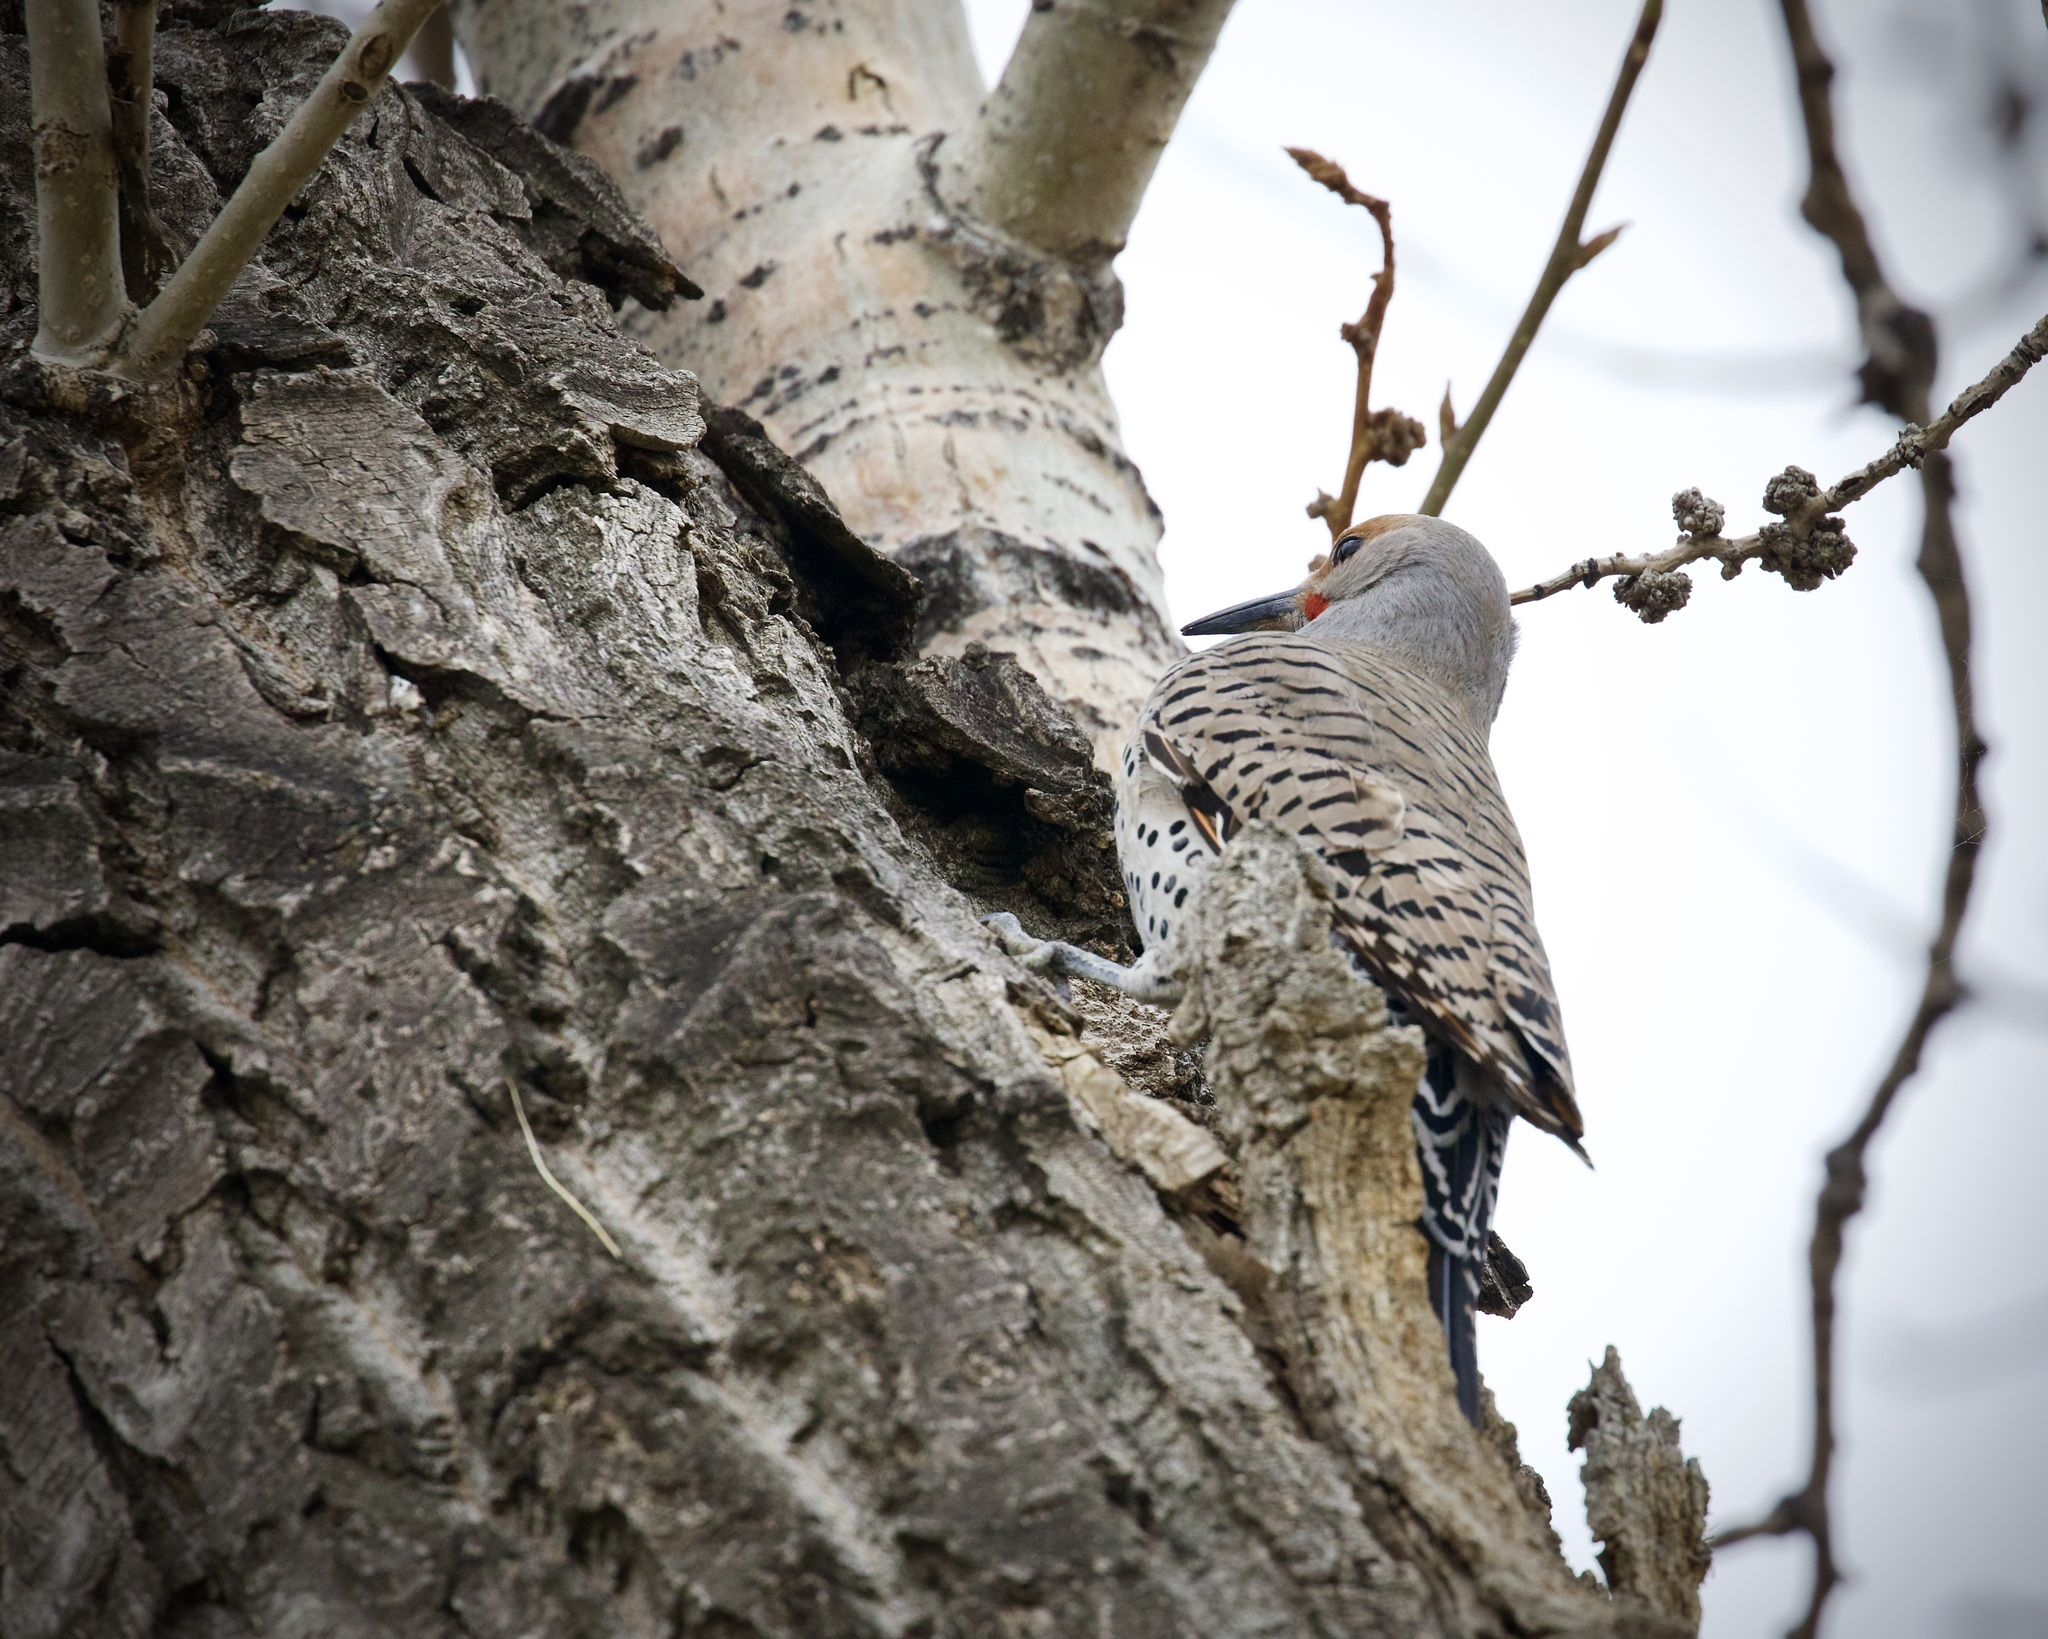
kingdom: Animalia
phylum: Chordata
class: Aves
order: Piciformes
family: Picidae
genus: Colaptes
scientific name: Colaptes auratus
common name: Northern flicker
